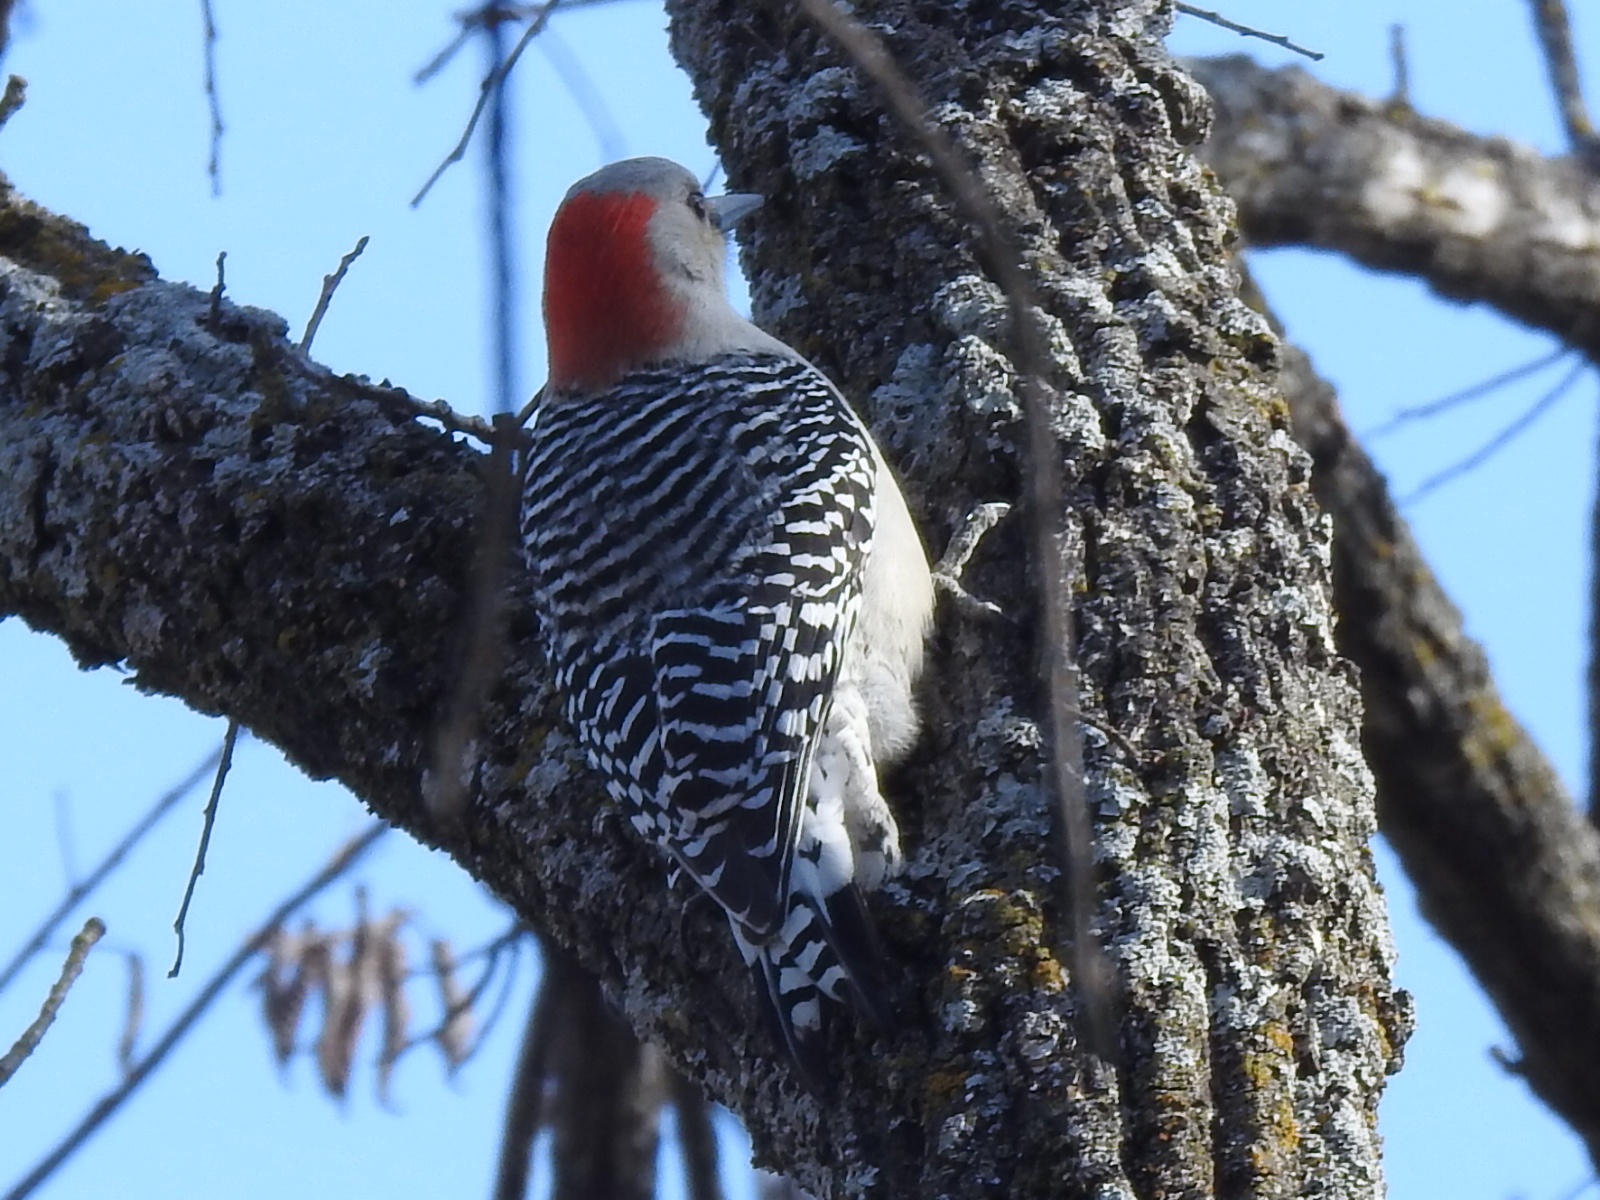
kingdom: Animalia
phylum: Chordata
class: Aves
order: Piciformes
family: Picidae
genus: Melanerpes
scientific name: Melanerpes carolinus
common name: Red-bellied woodpecker
